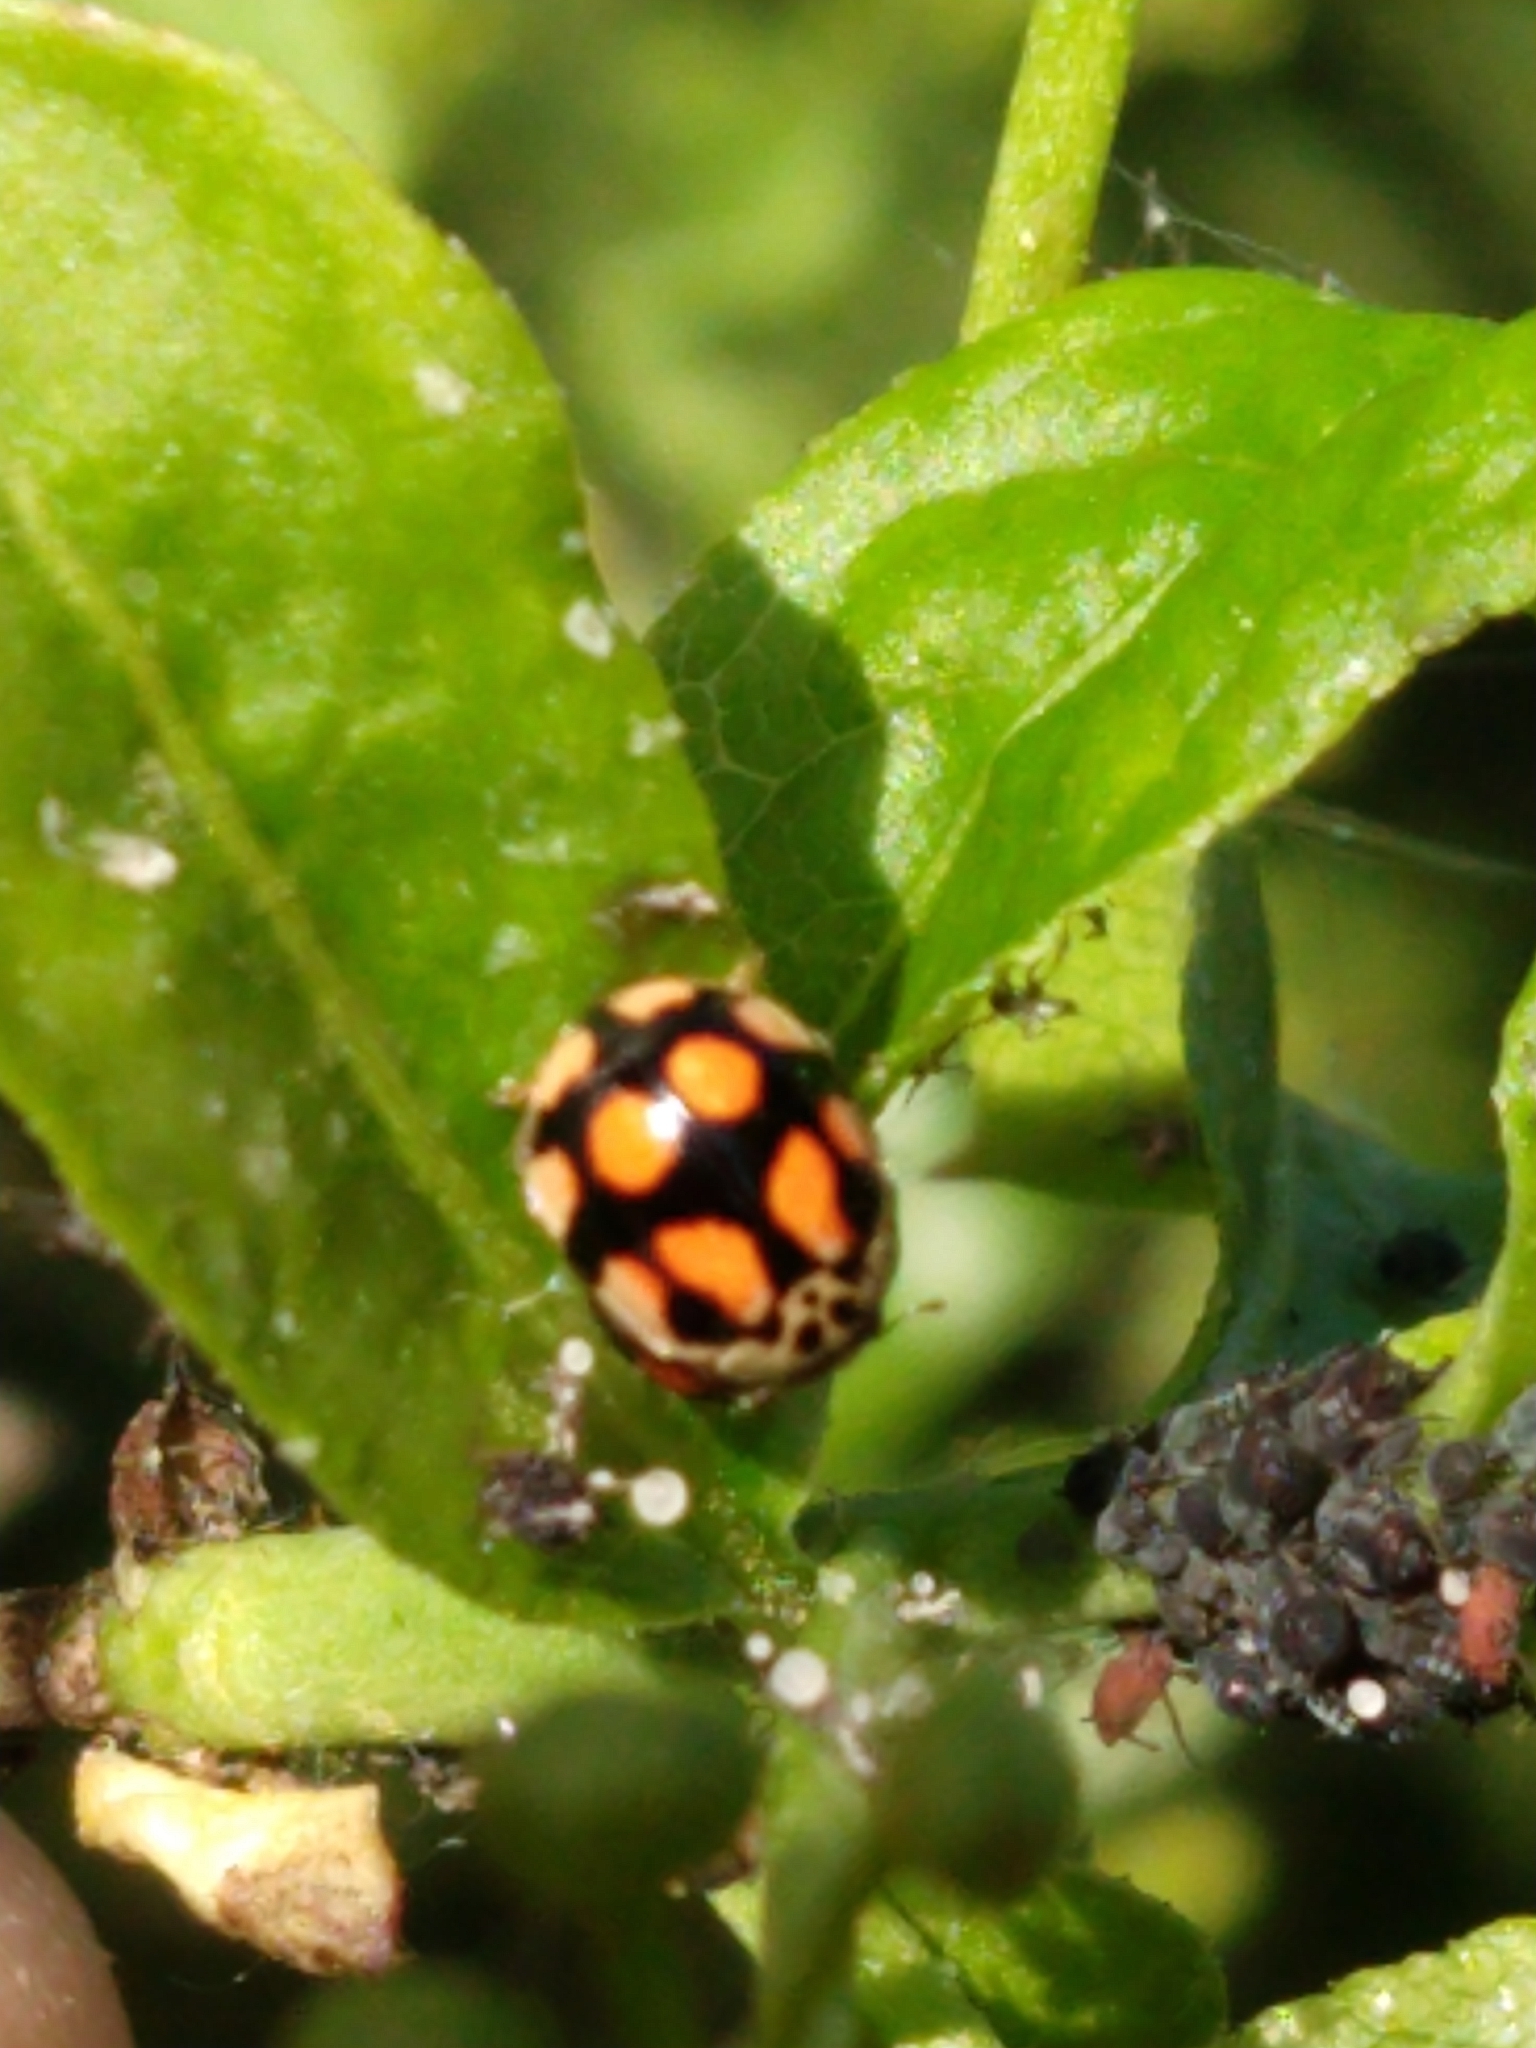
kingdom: Animalia
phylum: Arthropoda
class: Insecta
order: Coleoptera
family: Coccinellidae
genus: Adalia
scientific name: Adalia decempunctata
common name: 10-spot ladybird
